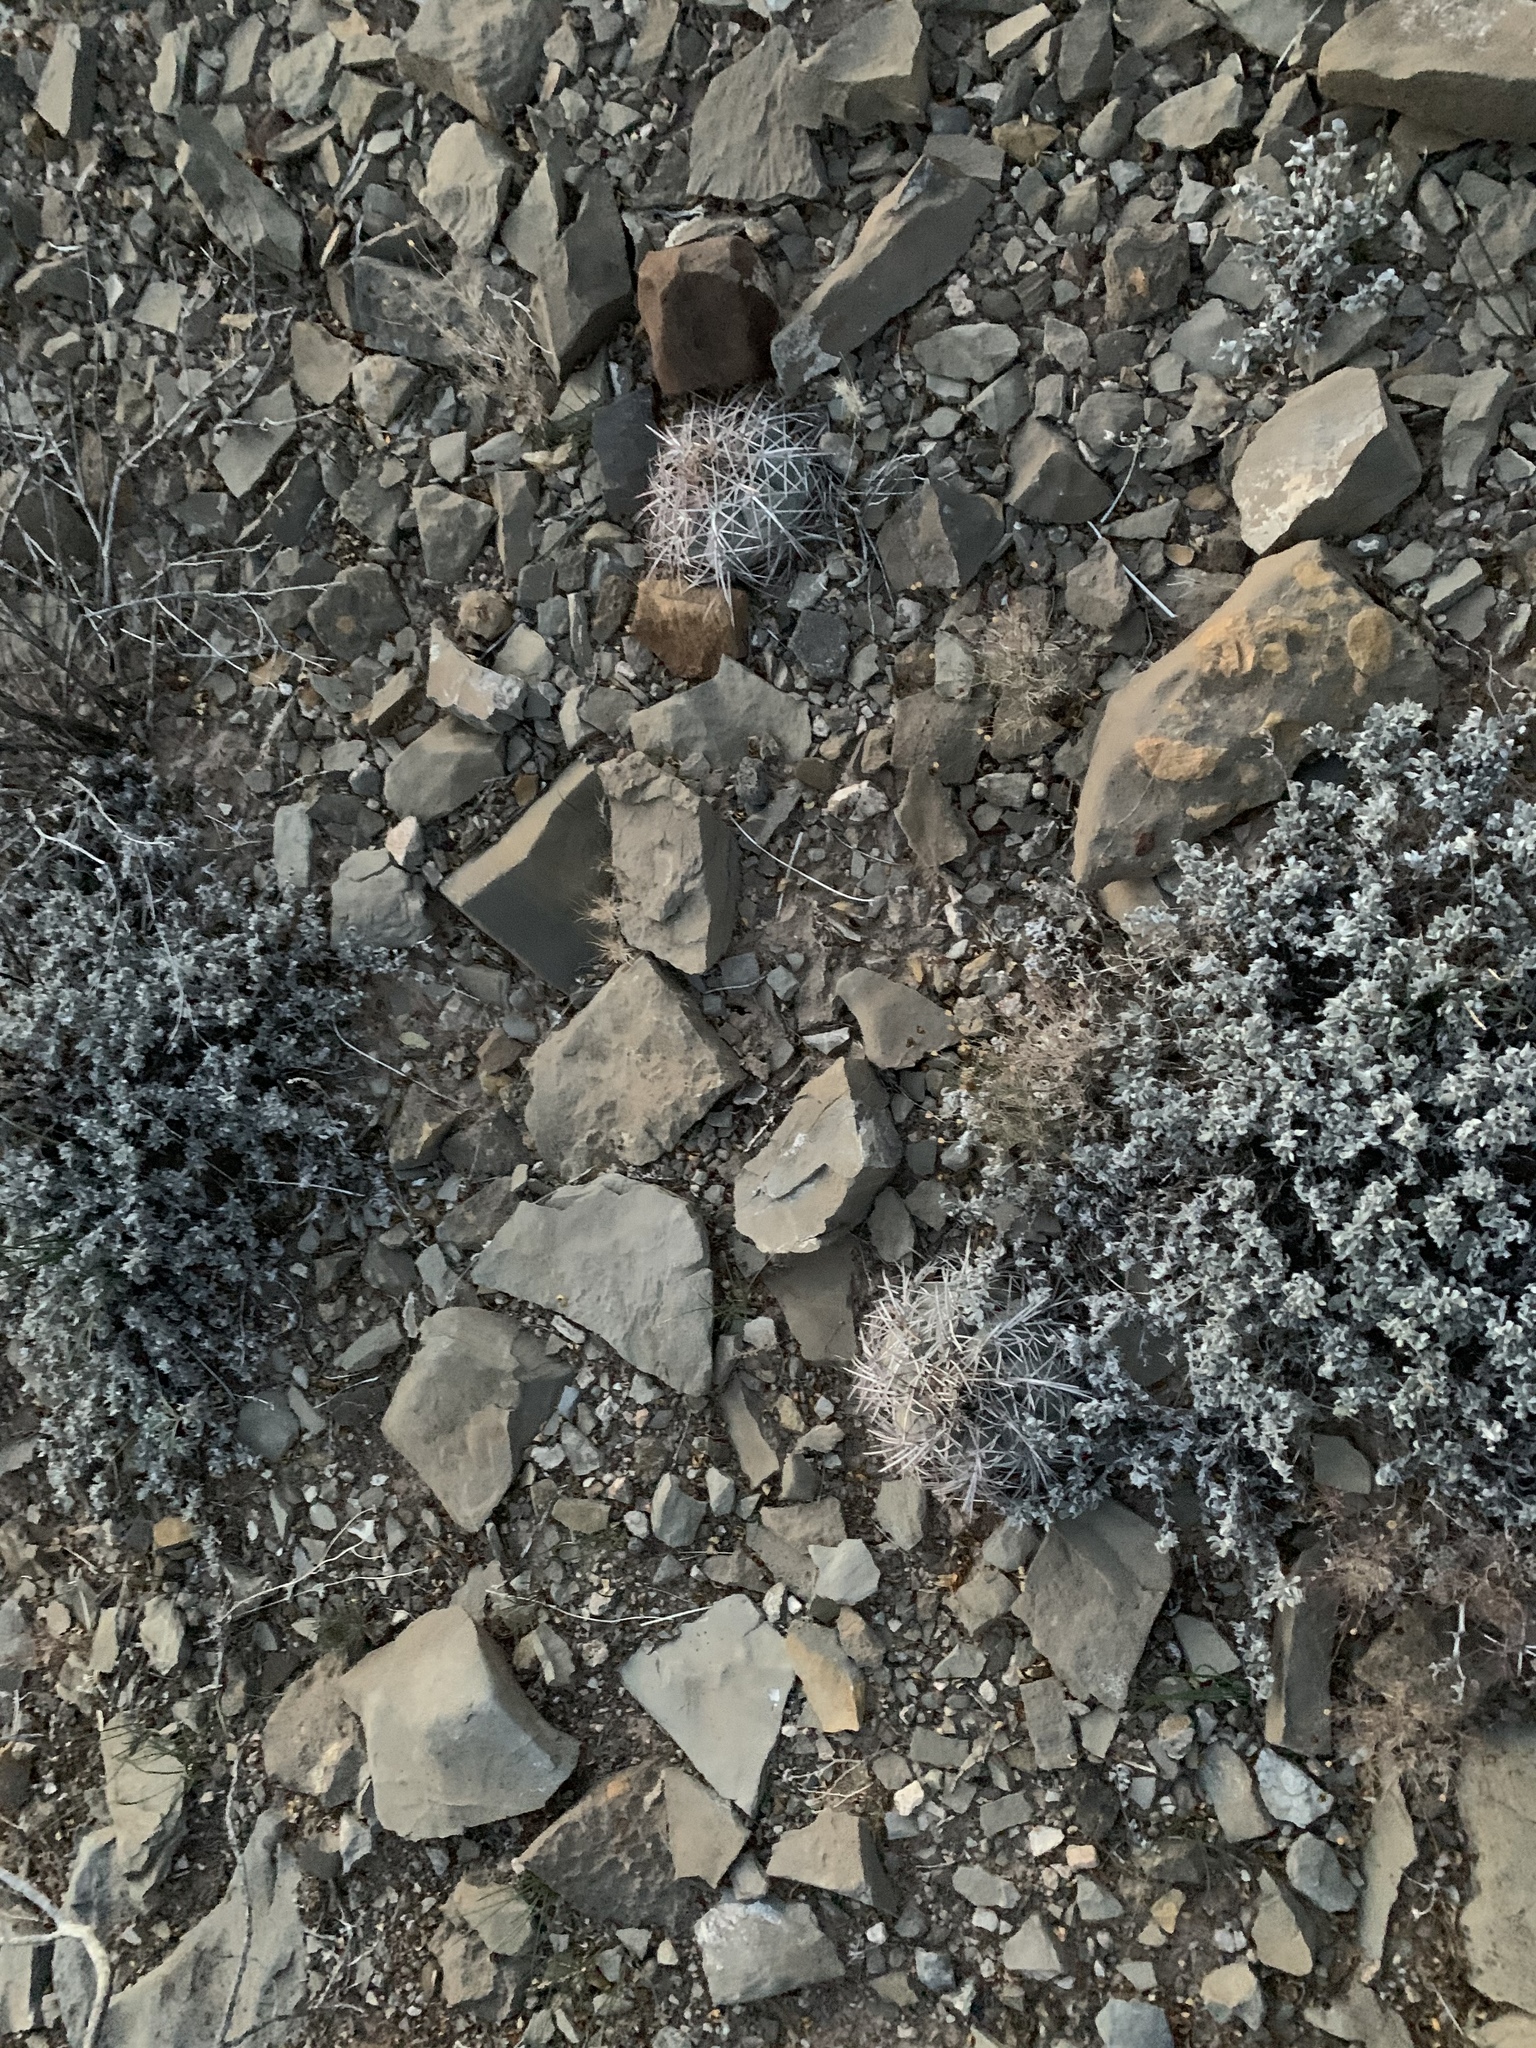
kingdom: Plantae
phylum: Tracheophyta
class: Magnoliopsida
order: Caryophyllales
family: Cactaceae
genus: Echinocactus
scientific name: Echinocactus horizonthalonius
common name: Devilshead
